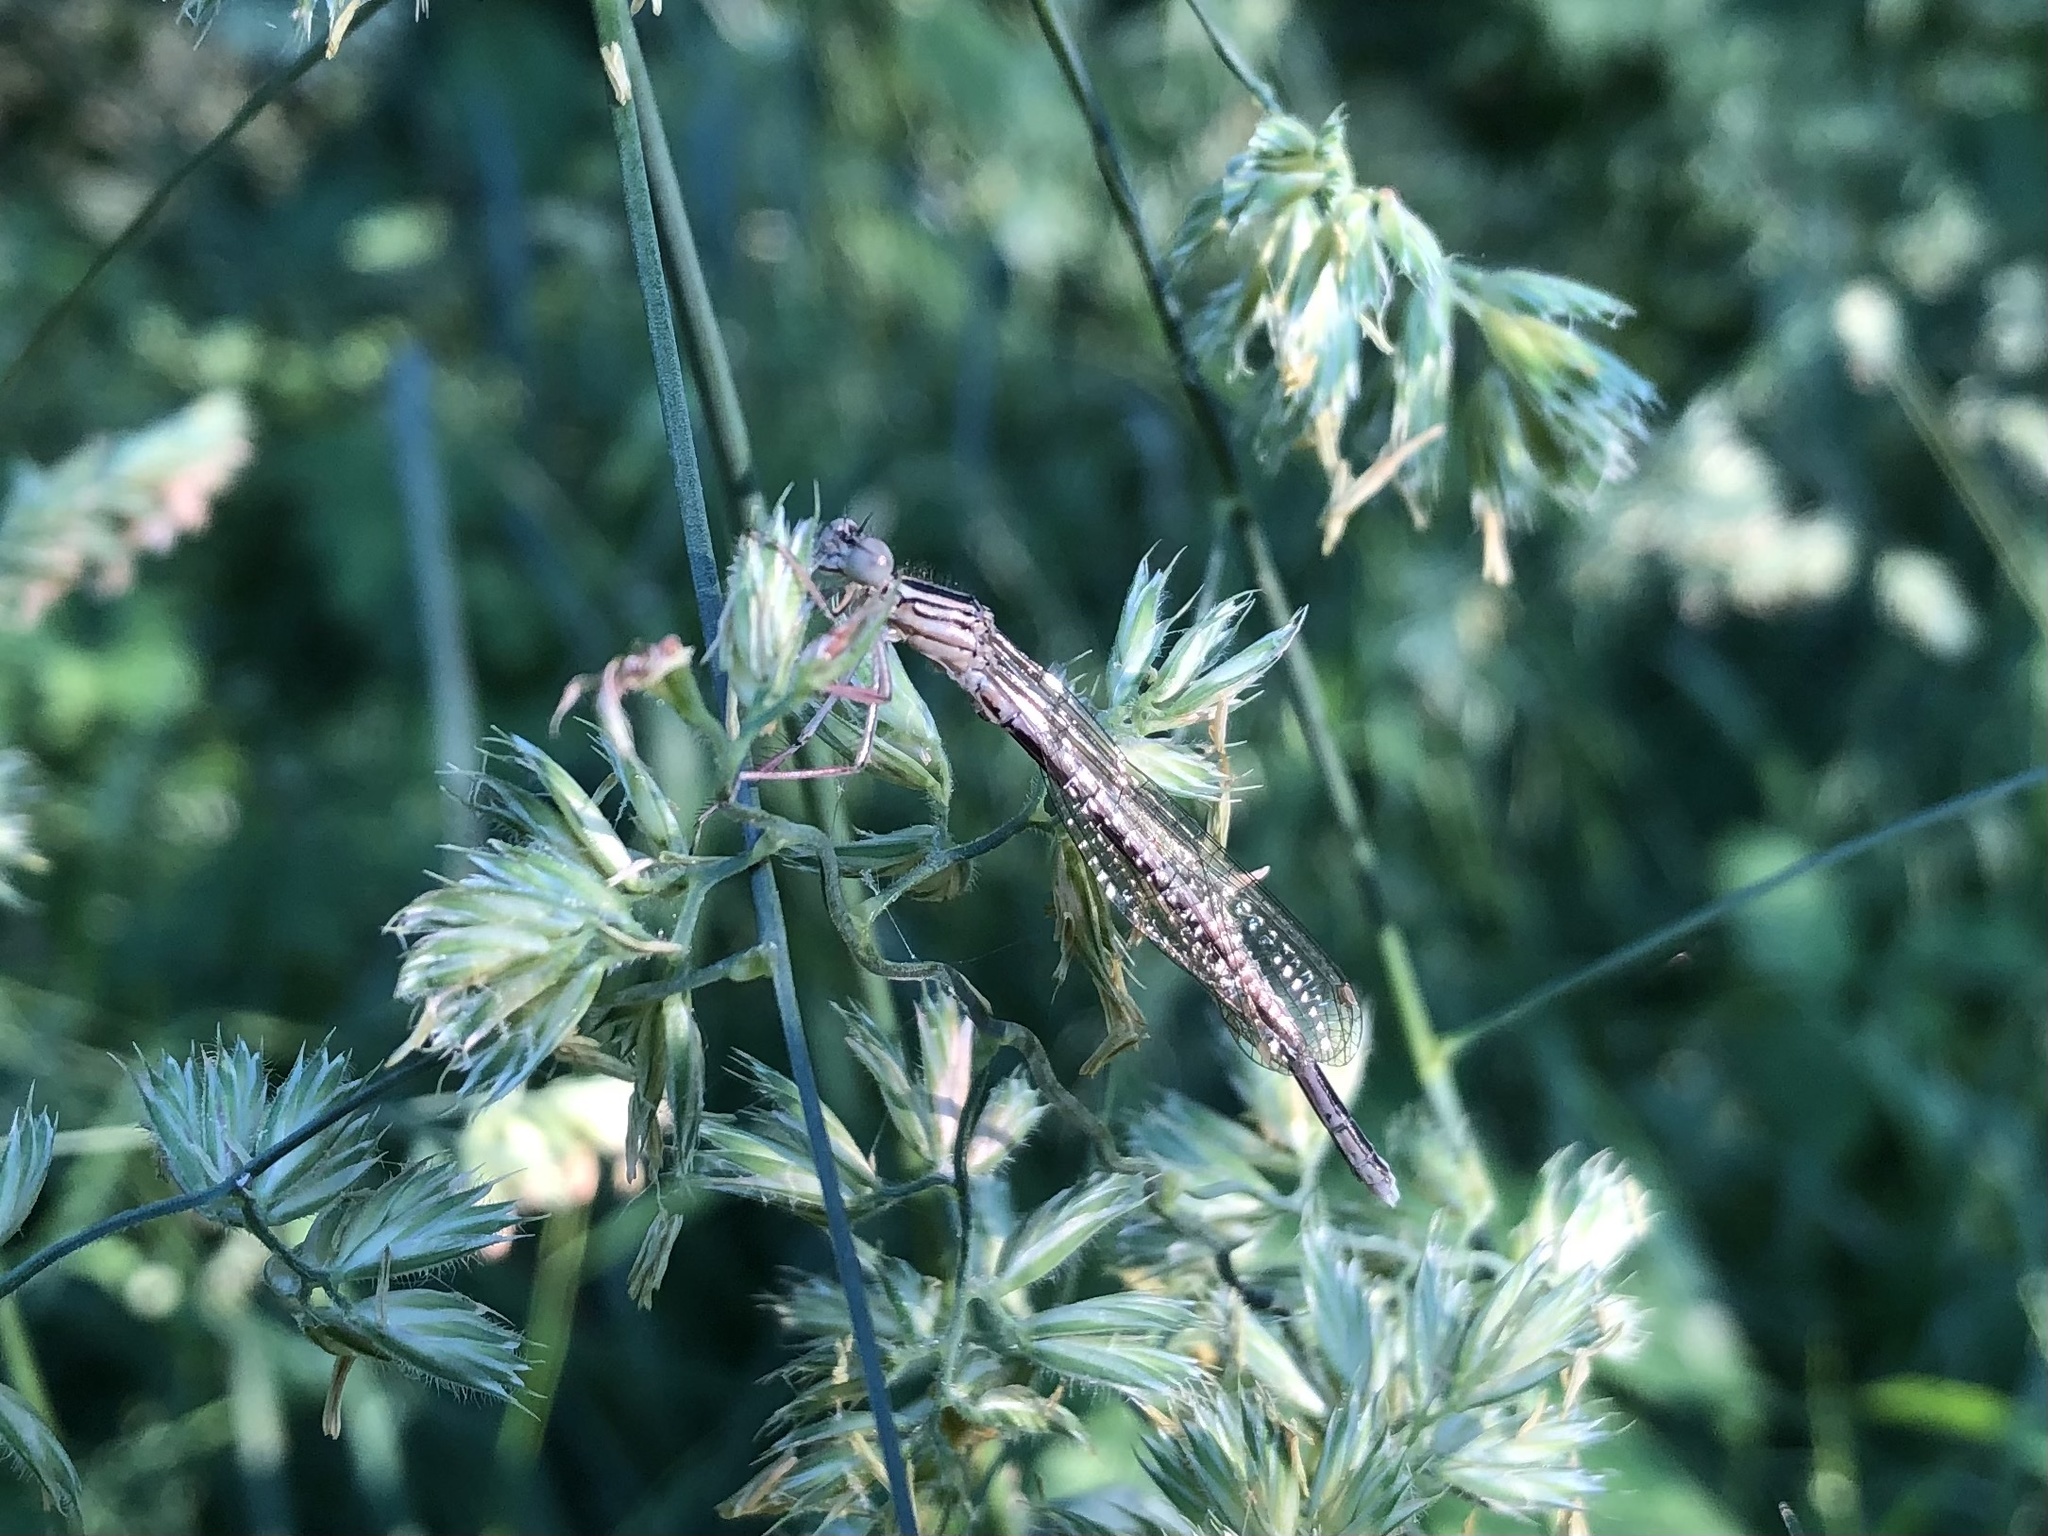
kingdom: Animalia
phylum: Arthropoda
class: Insecta
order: Odonata
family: Platycnemididae
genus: Platycnemis
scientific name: Platycnemis pennipes
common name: White-legged damselfly
